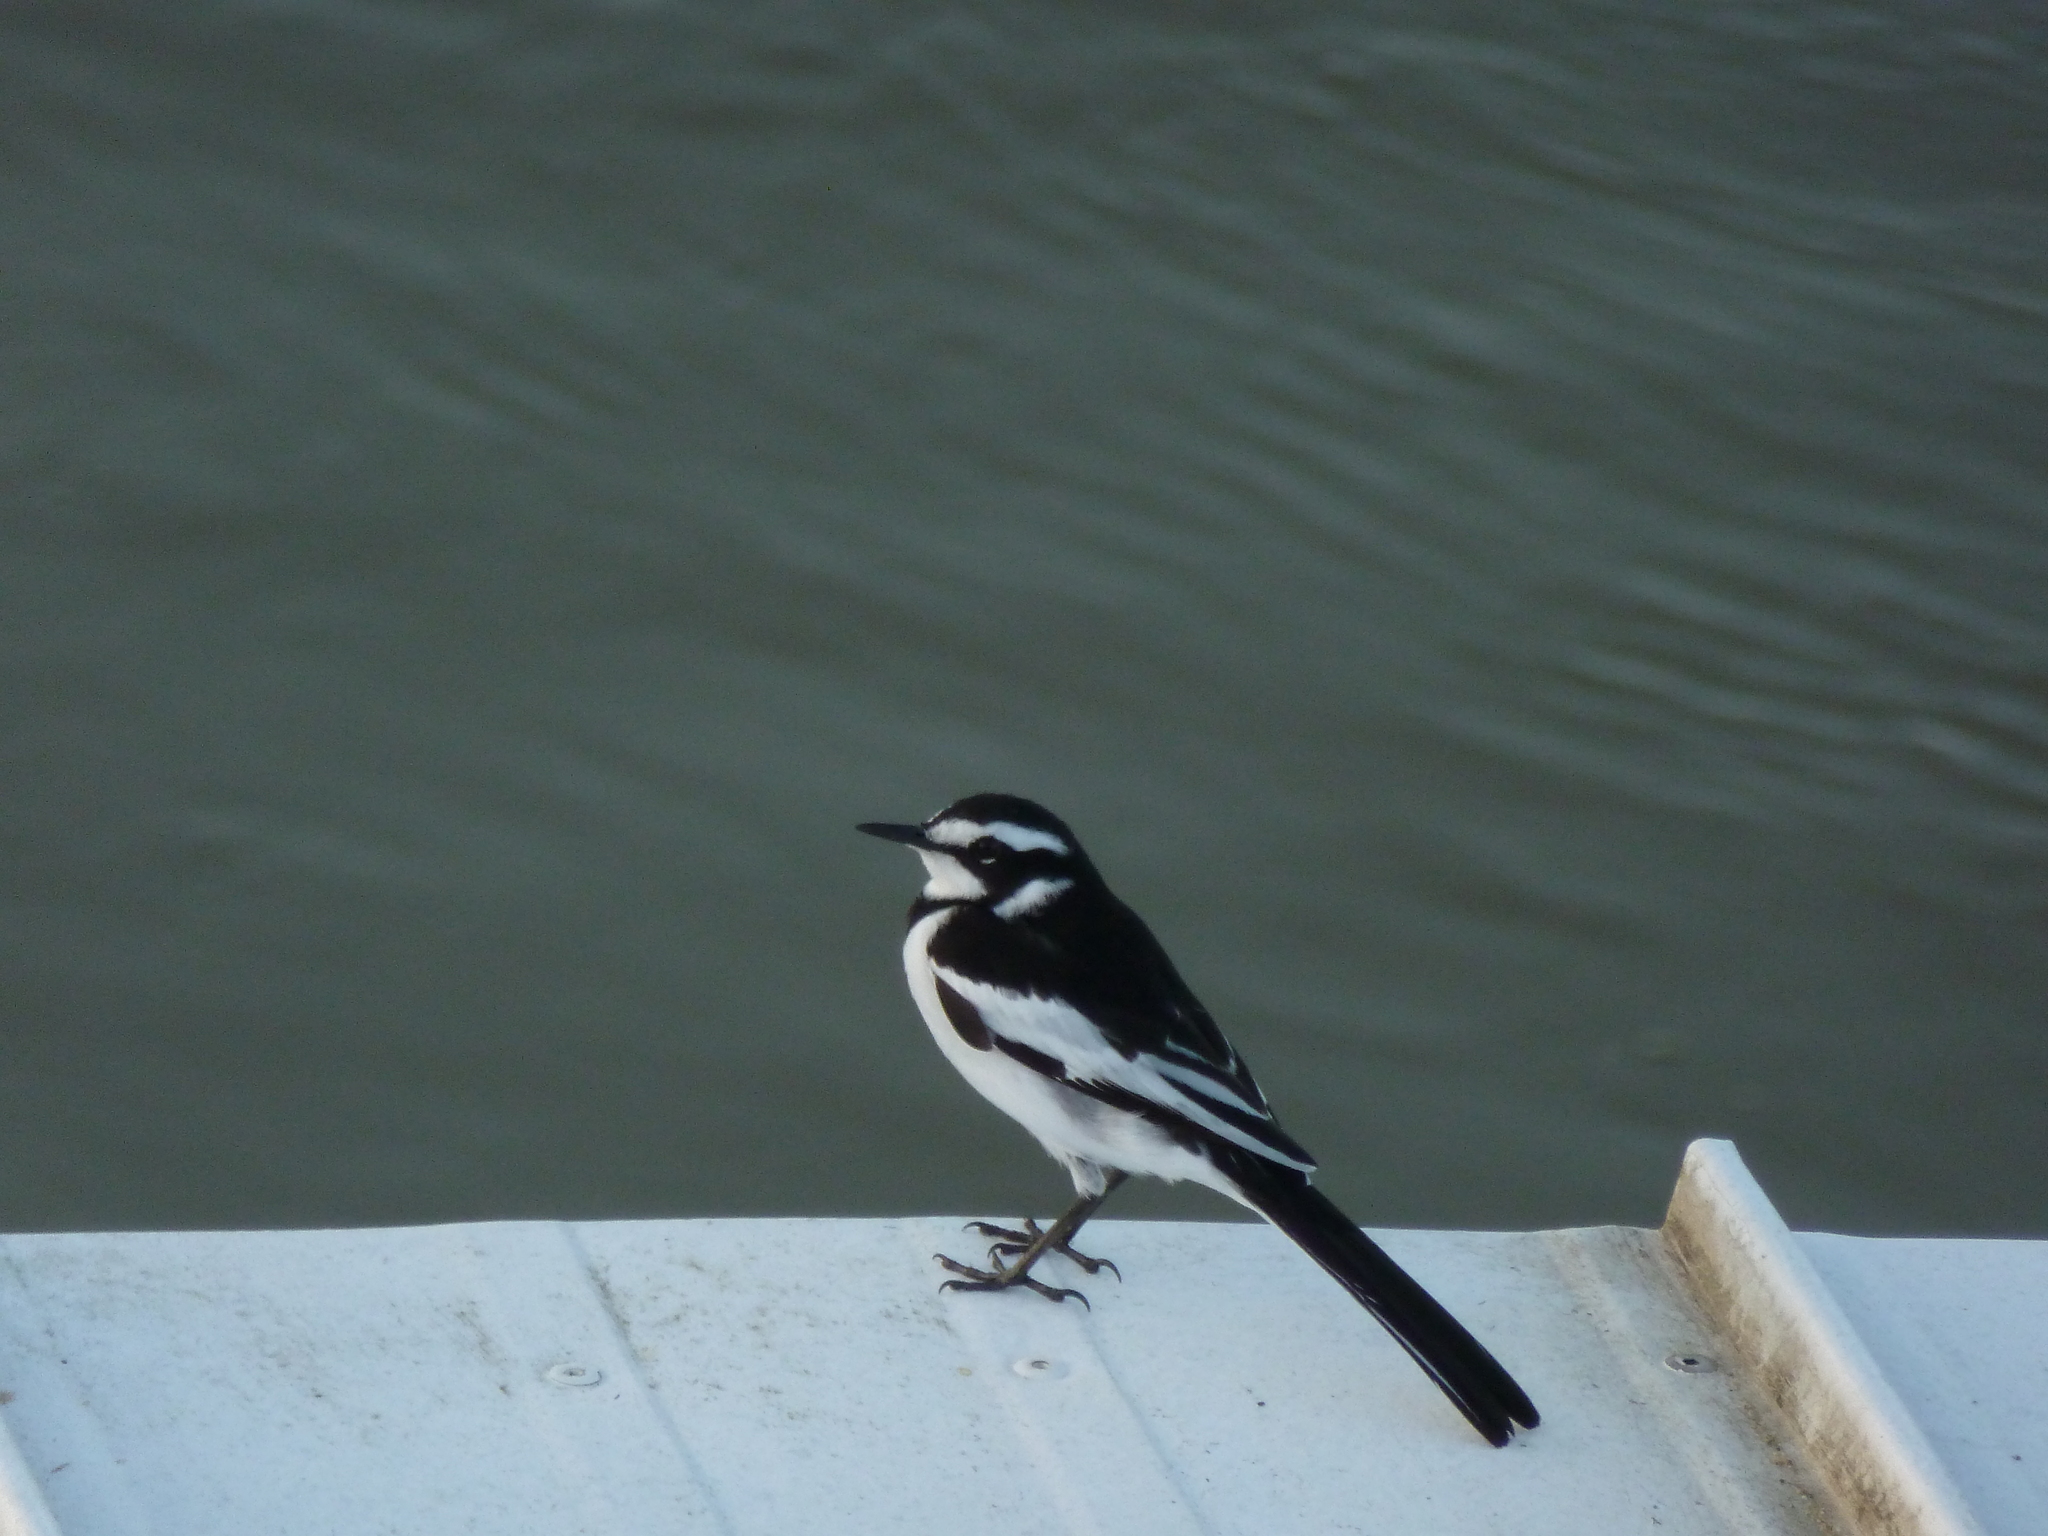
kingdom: Animalia
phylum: Chordata
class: Aves
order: Passeriformes
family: Motacillidae
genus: Motacilla
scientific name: Motacilla aguimp
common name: African pied wagtail
